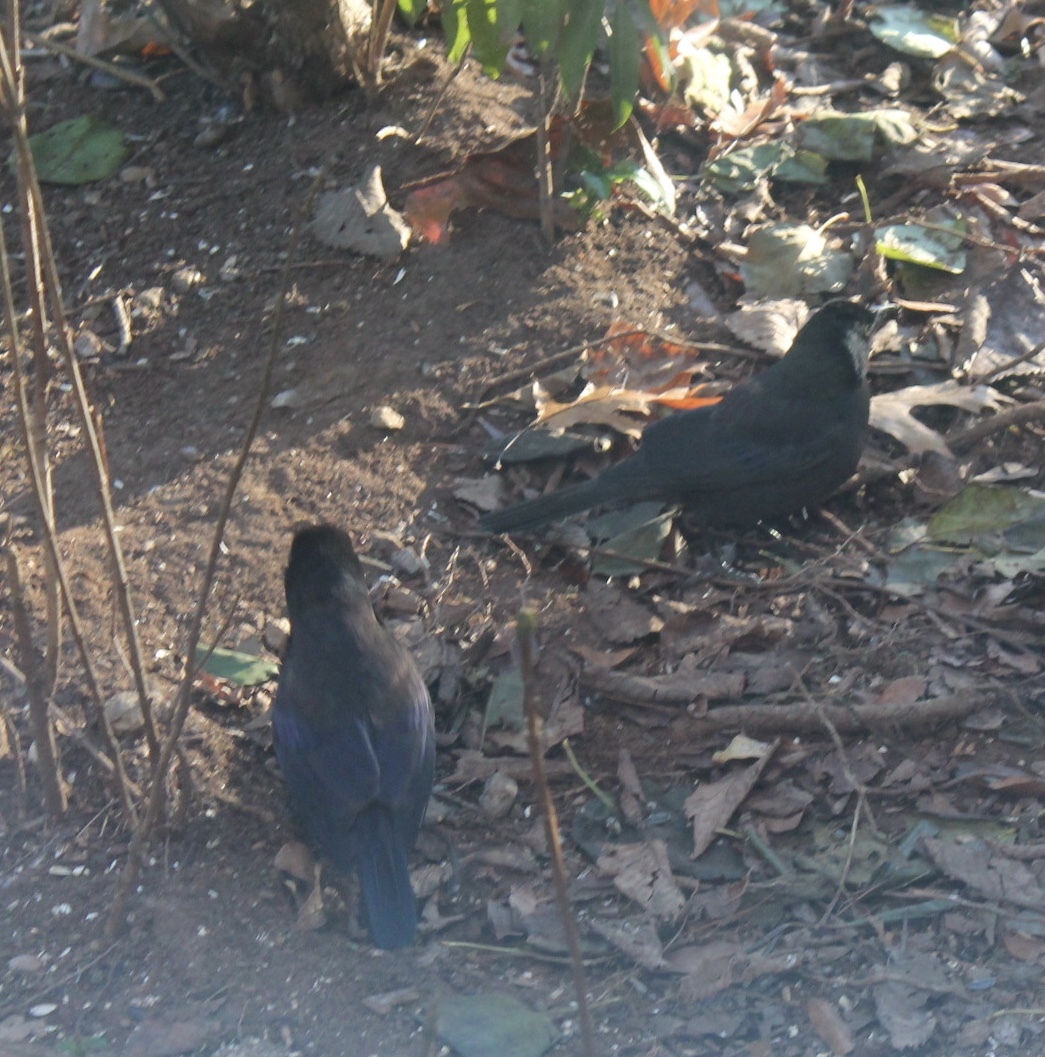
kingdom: Animalia
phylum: Chordata
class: Aves
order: Passeriformes
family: Icteridae
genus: Quiscalus
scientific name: Quiscalus quiscula
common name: Common grackle
